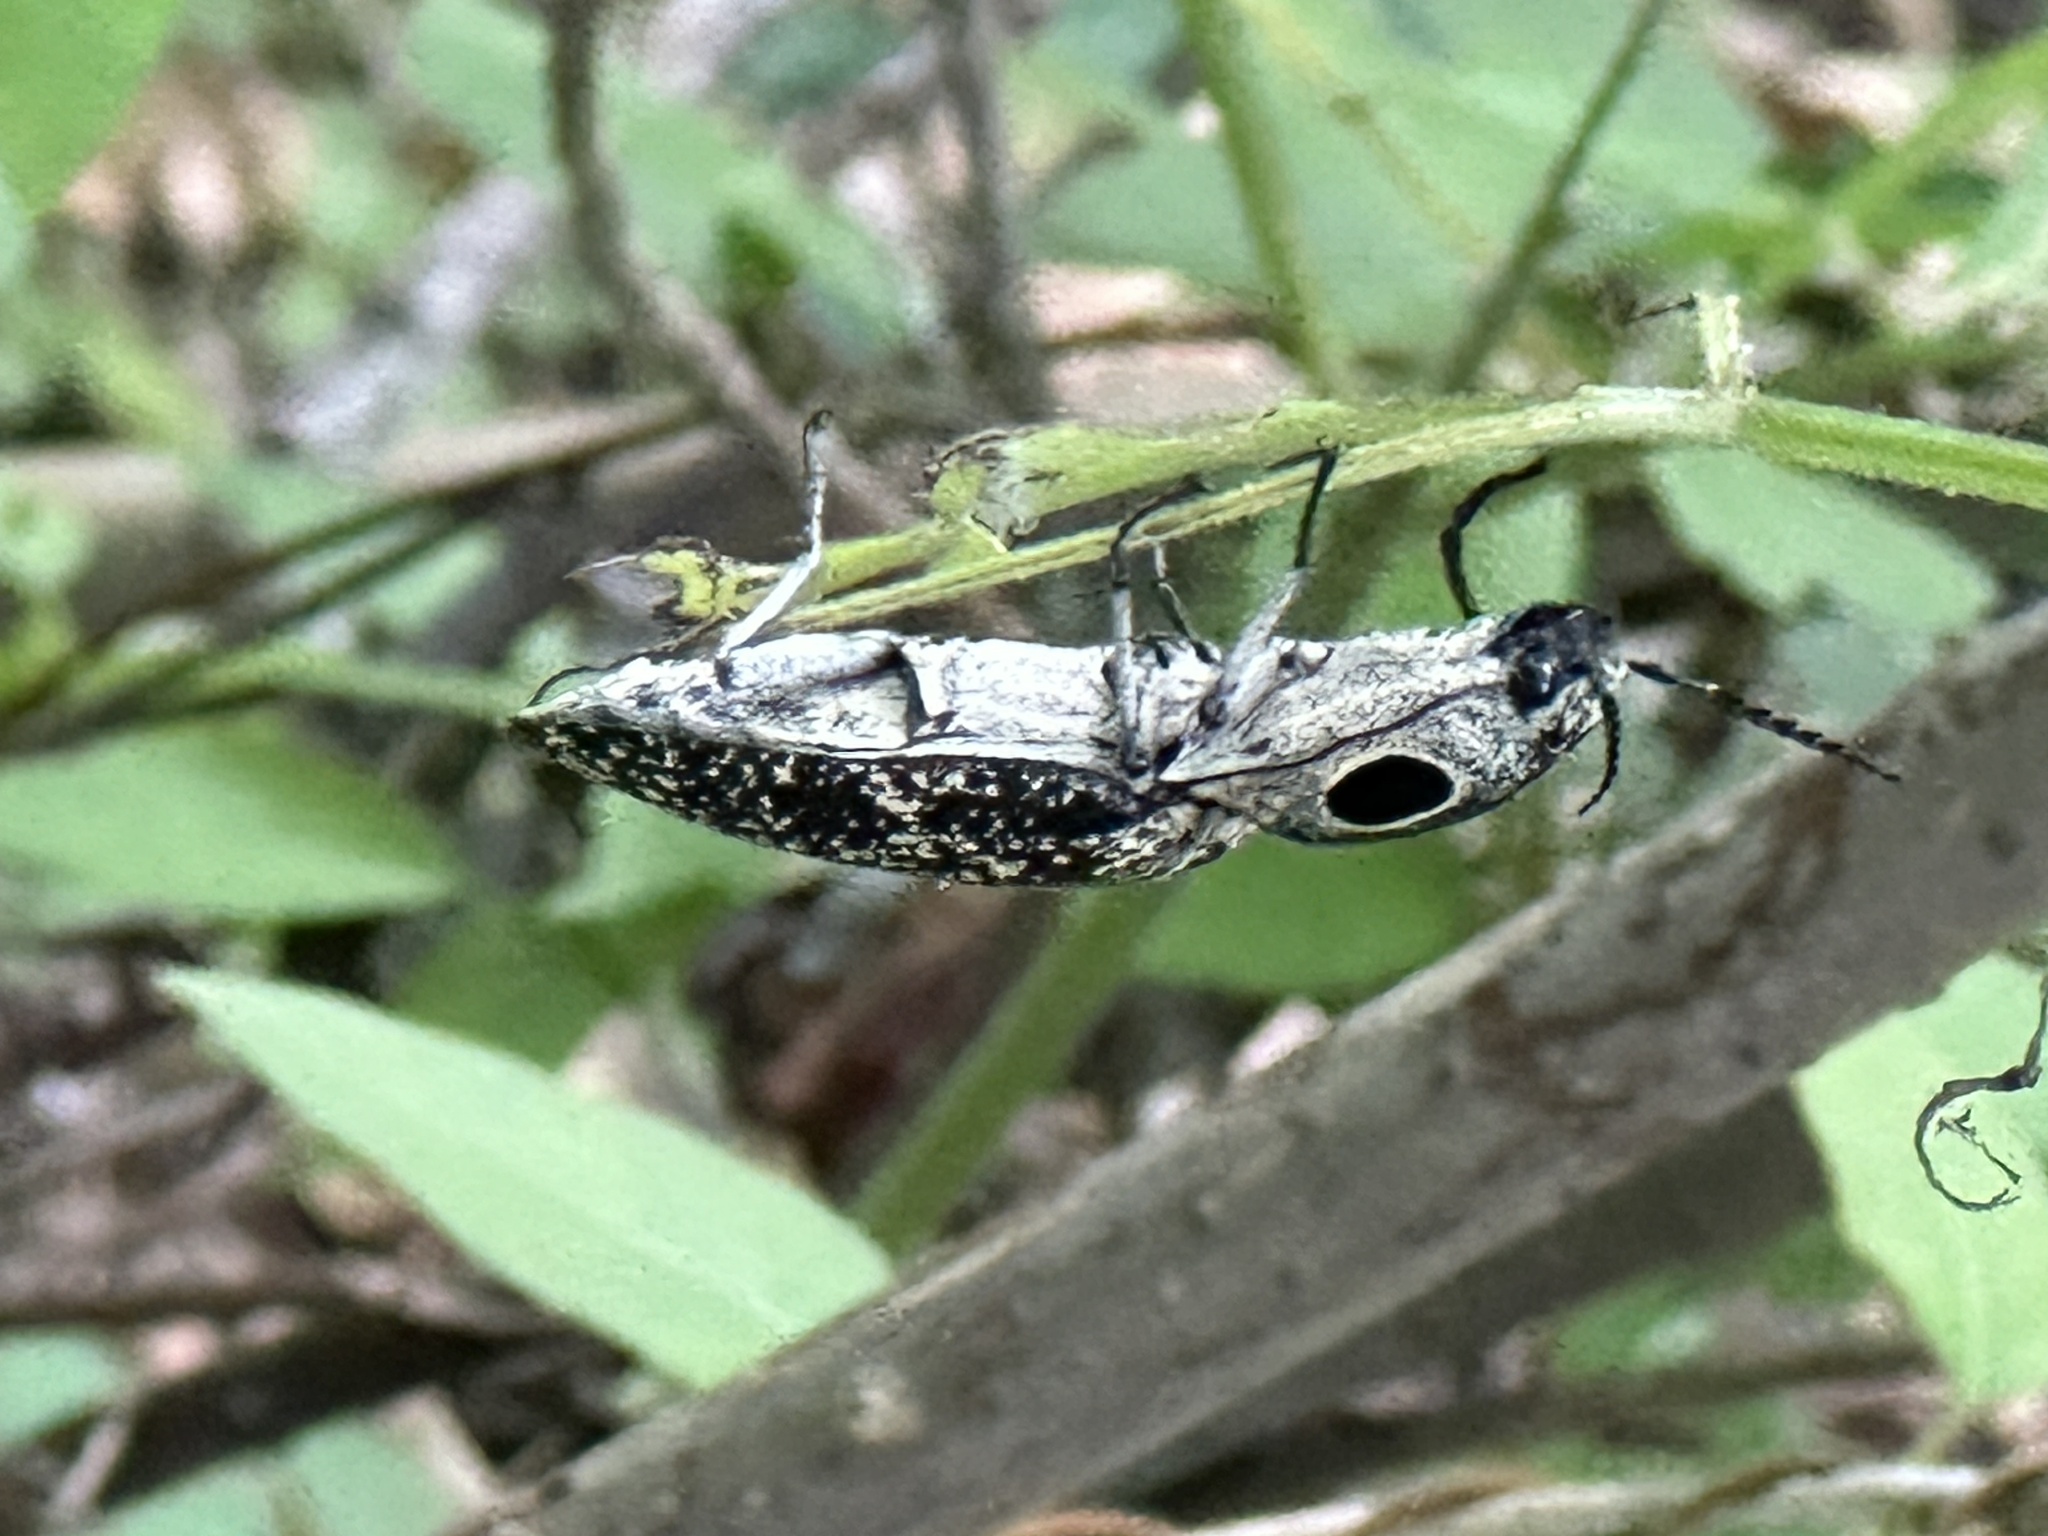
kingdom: Animalia
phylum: Arthropoda
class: Insecta
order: Coleoptera
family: Elateridae
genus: Alaus
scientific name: Alaus oculatus
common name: Eastern eyed click beetle
